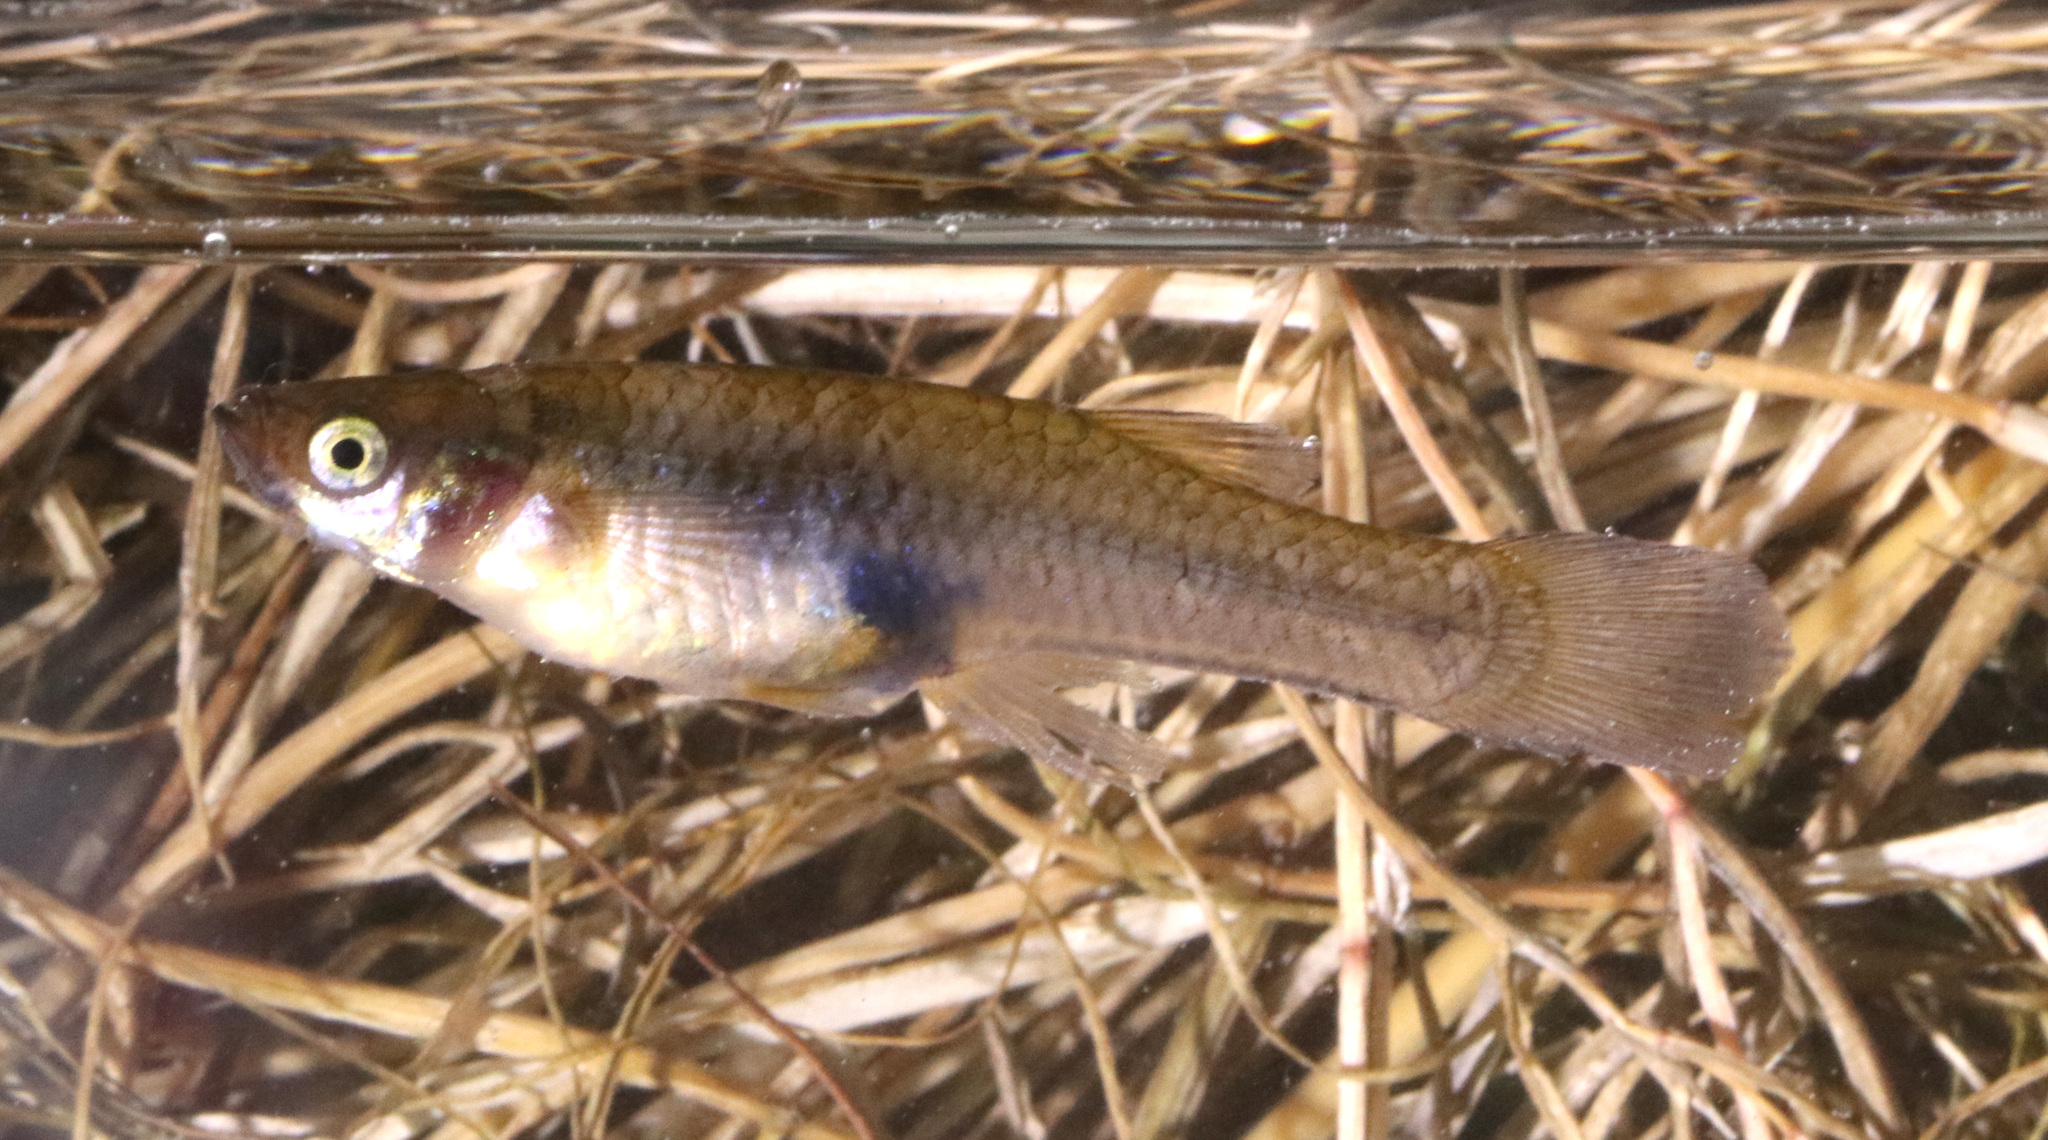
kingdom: Animalia
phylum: Chordata
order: Cyprinodontiformes
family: Poeciliidae
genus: Gambusia
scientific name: Gambusia affinis
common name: Mosquitofish
